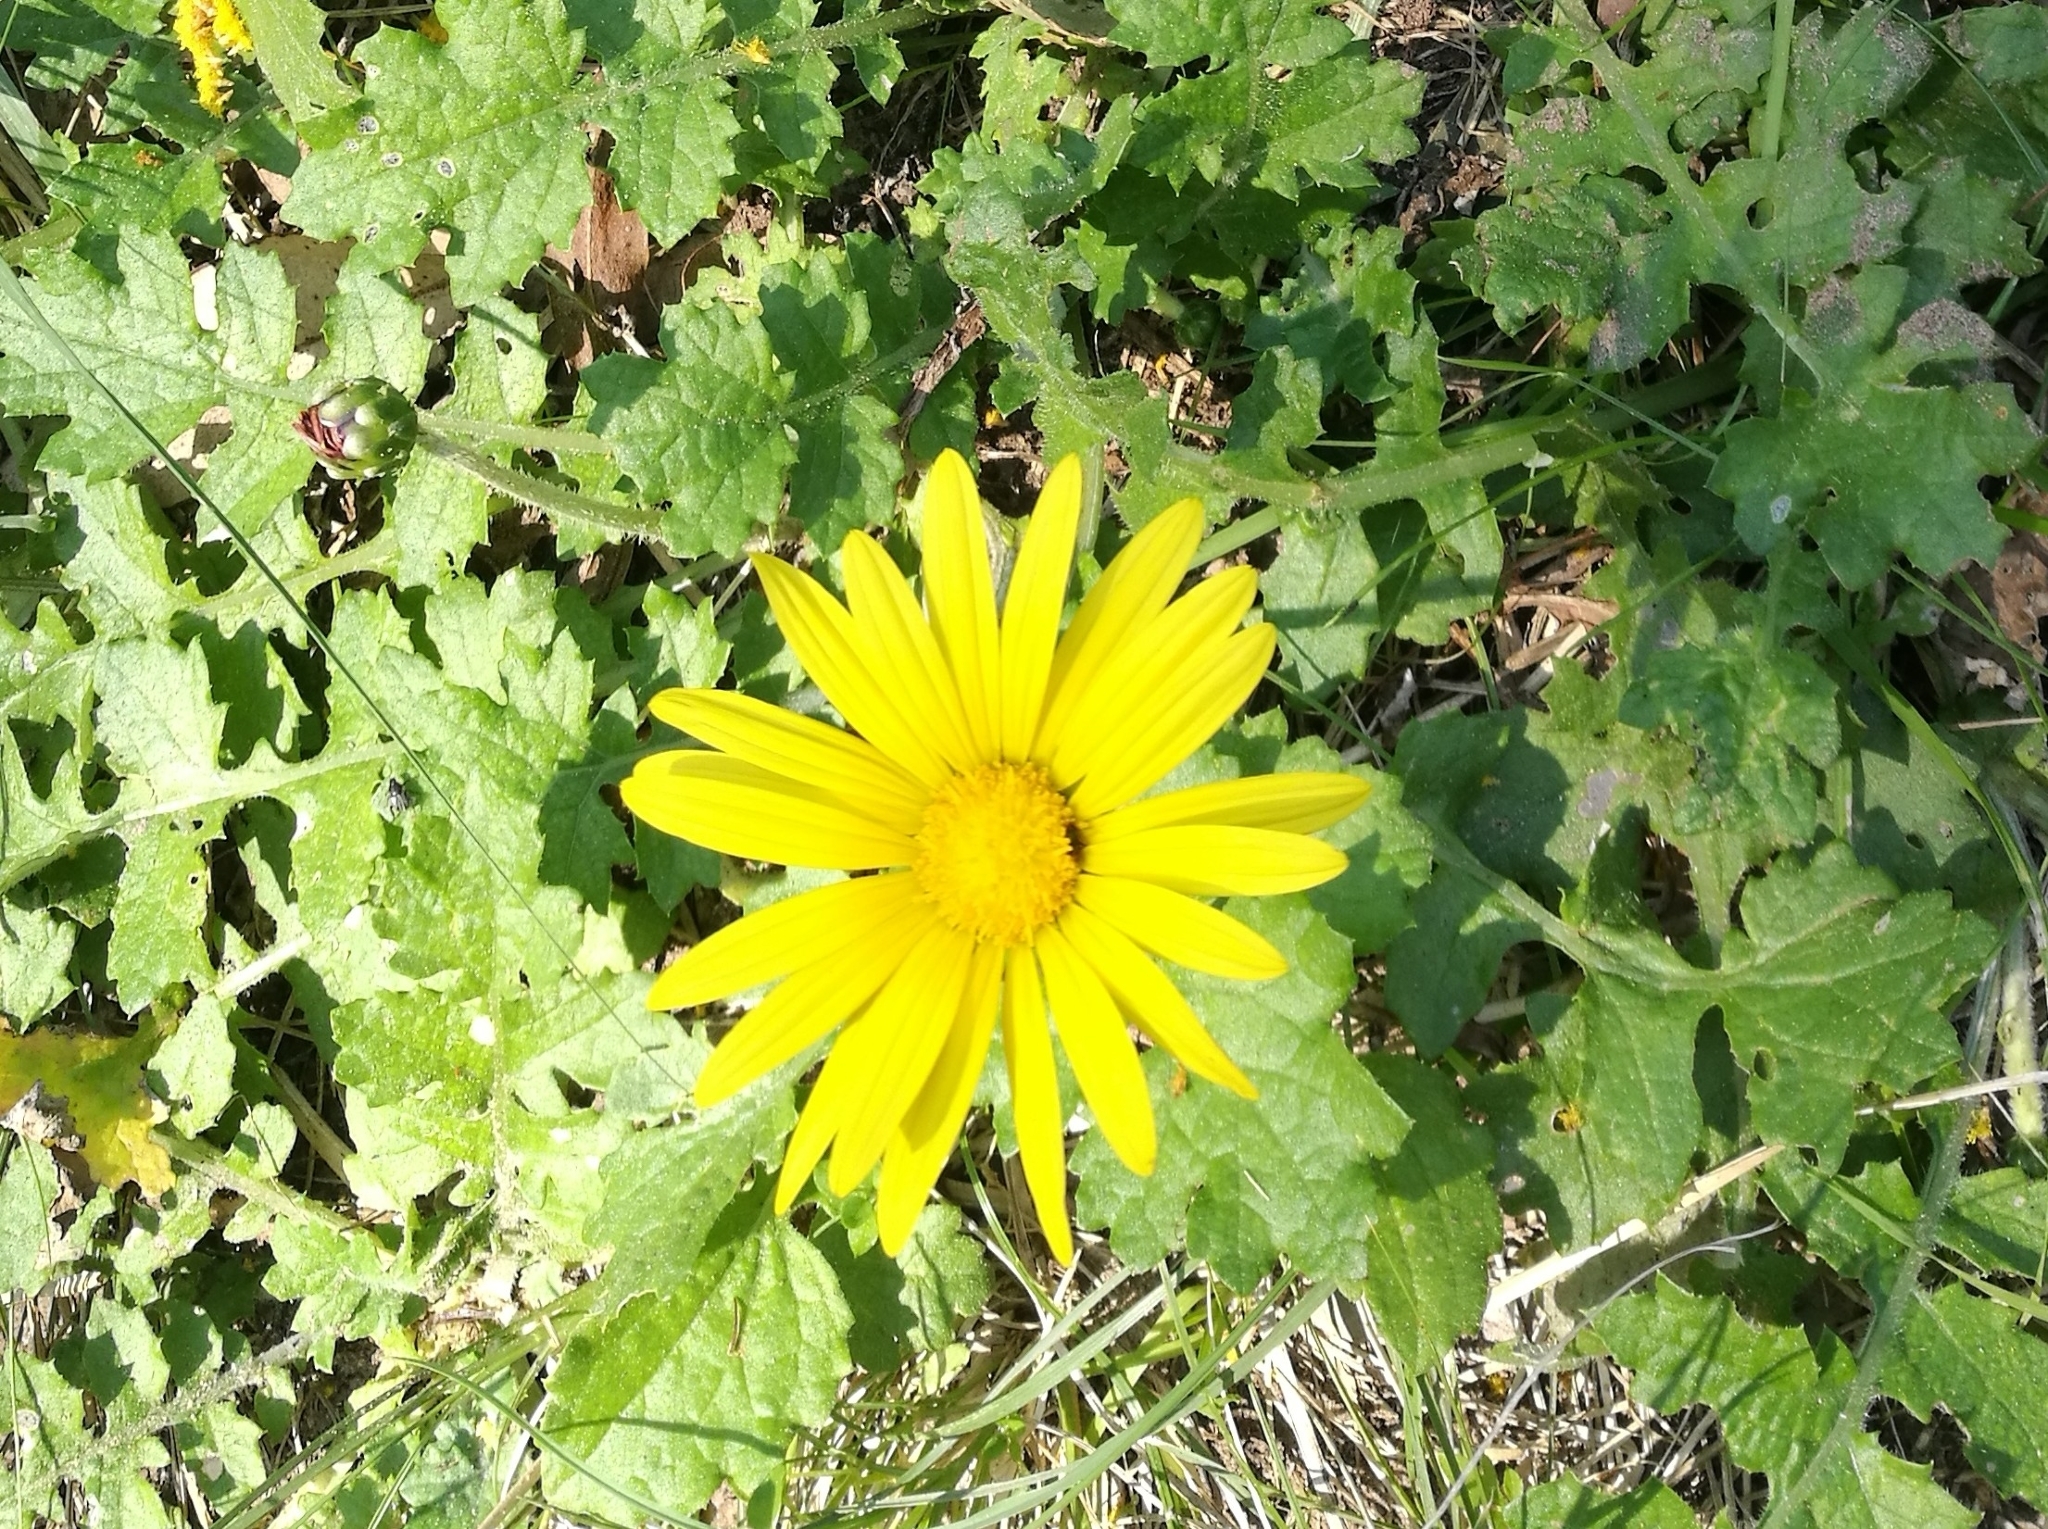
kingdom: Plantae
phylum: Tracheophyta
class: Magnoliopsida
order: Asterales
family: Asteraceae
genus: Arctotheca
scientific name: Arctotheca prostrata
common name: Capeweed
